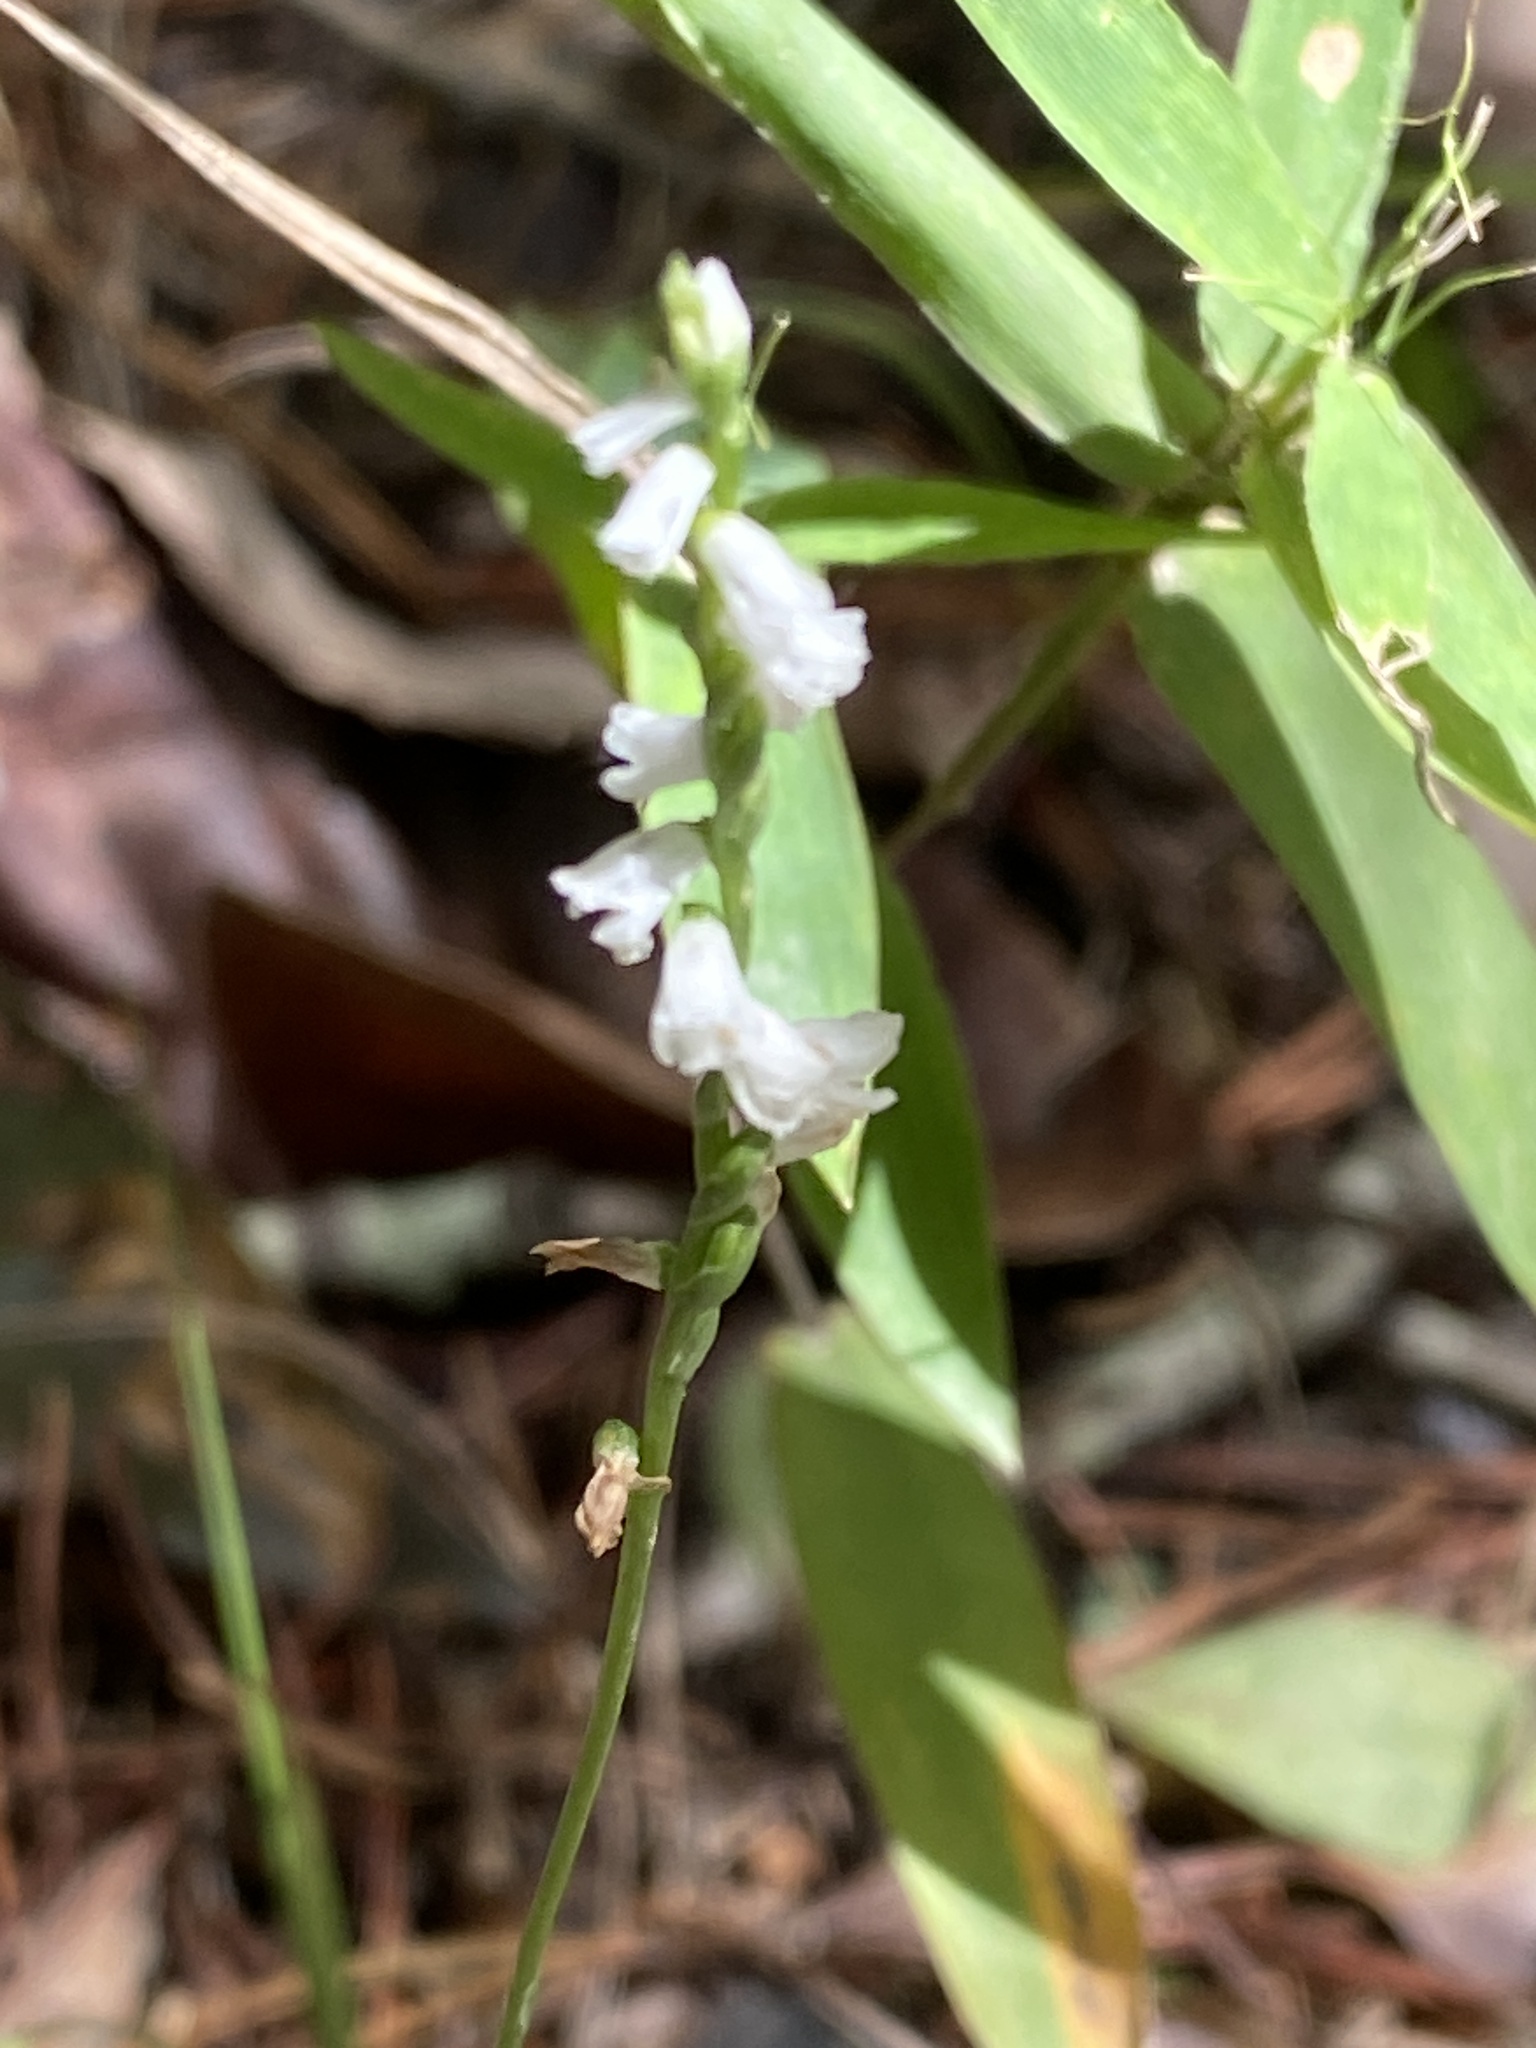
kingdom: Plantae
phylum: Tracheophyta
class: Liliopsida
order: Asparagales
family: Orchidaceae
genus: Spiranthes
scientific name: Spiranthes tuberosa
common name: Little ladies'-tresses
